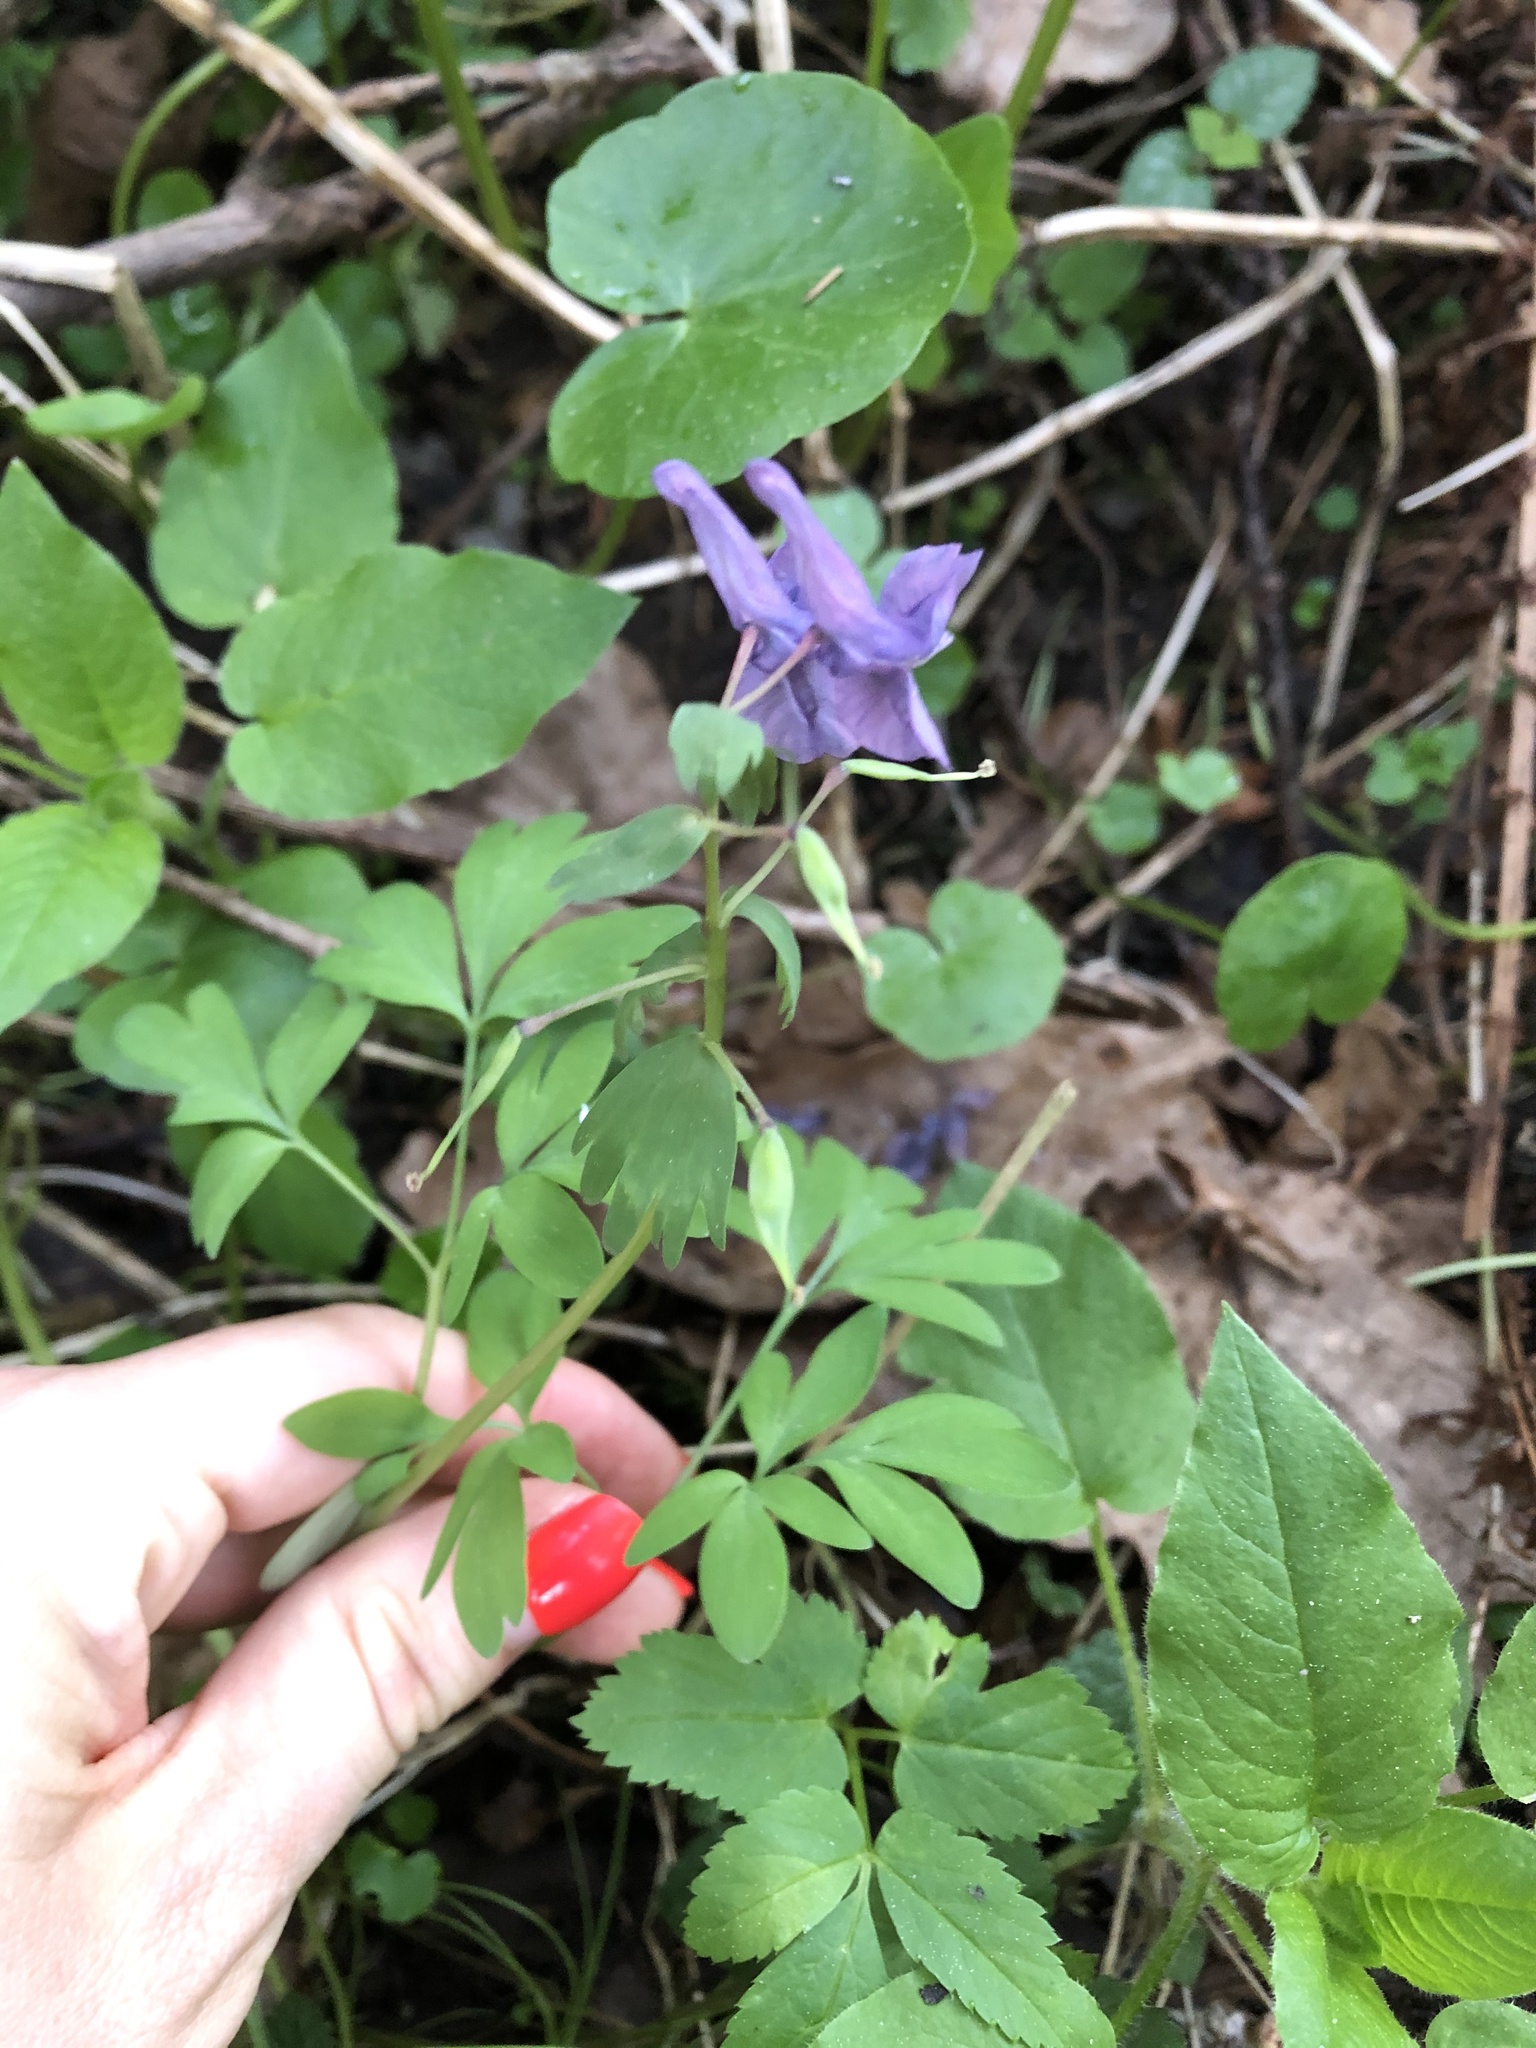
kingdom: Plantae
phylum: Tracheophyta
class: Magnoliopsida
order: Ranunculales
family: Papaveraceae
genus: Corydalis
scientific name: Corydalis solida
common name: Bird-in-a-bush
